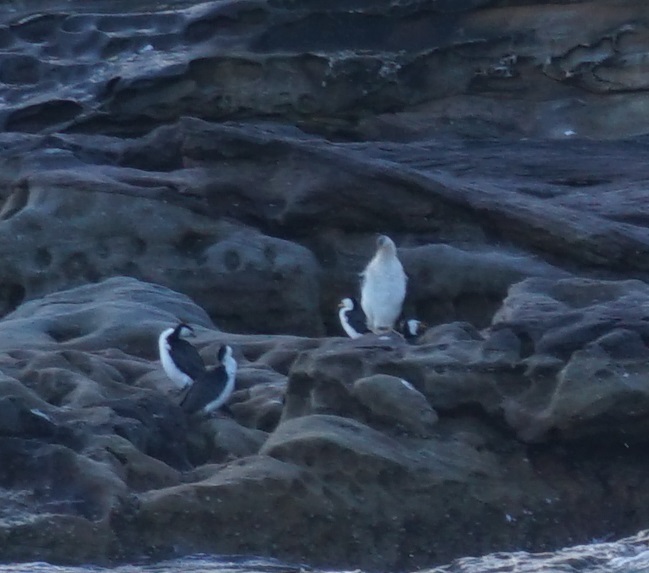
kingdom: Animalia
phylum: Chordata
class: Aves
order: Suliformes
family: Anhingidae
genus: Anhinga
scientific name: Anhinga novaehollandiae
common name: Australasian darter
